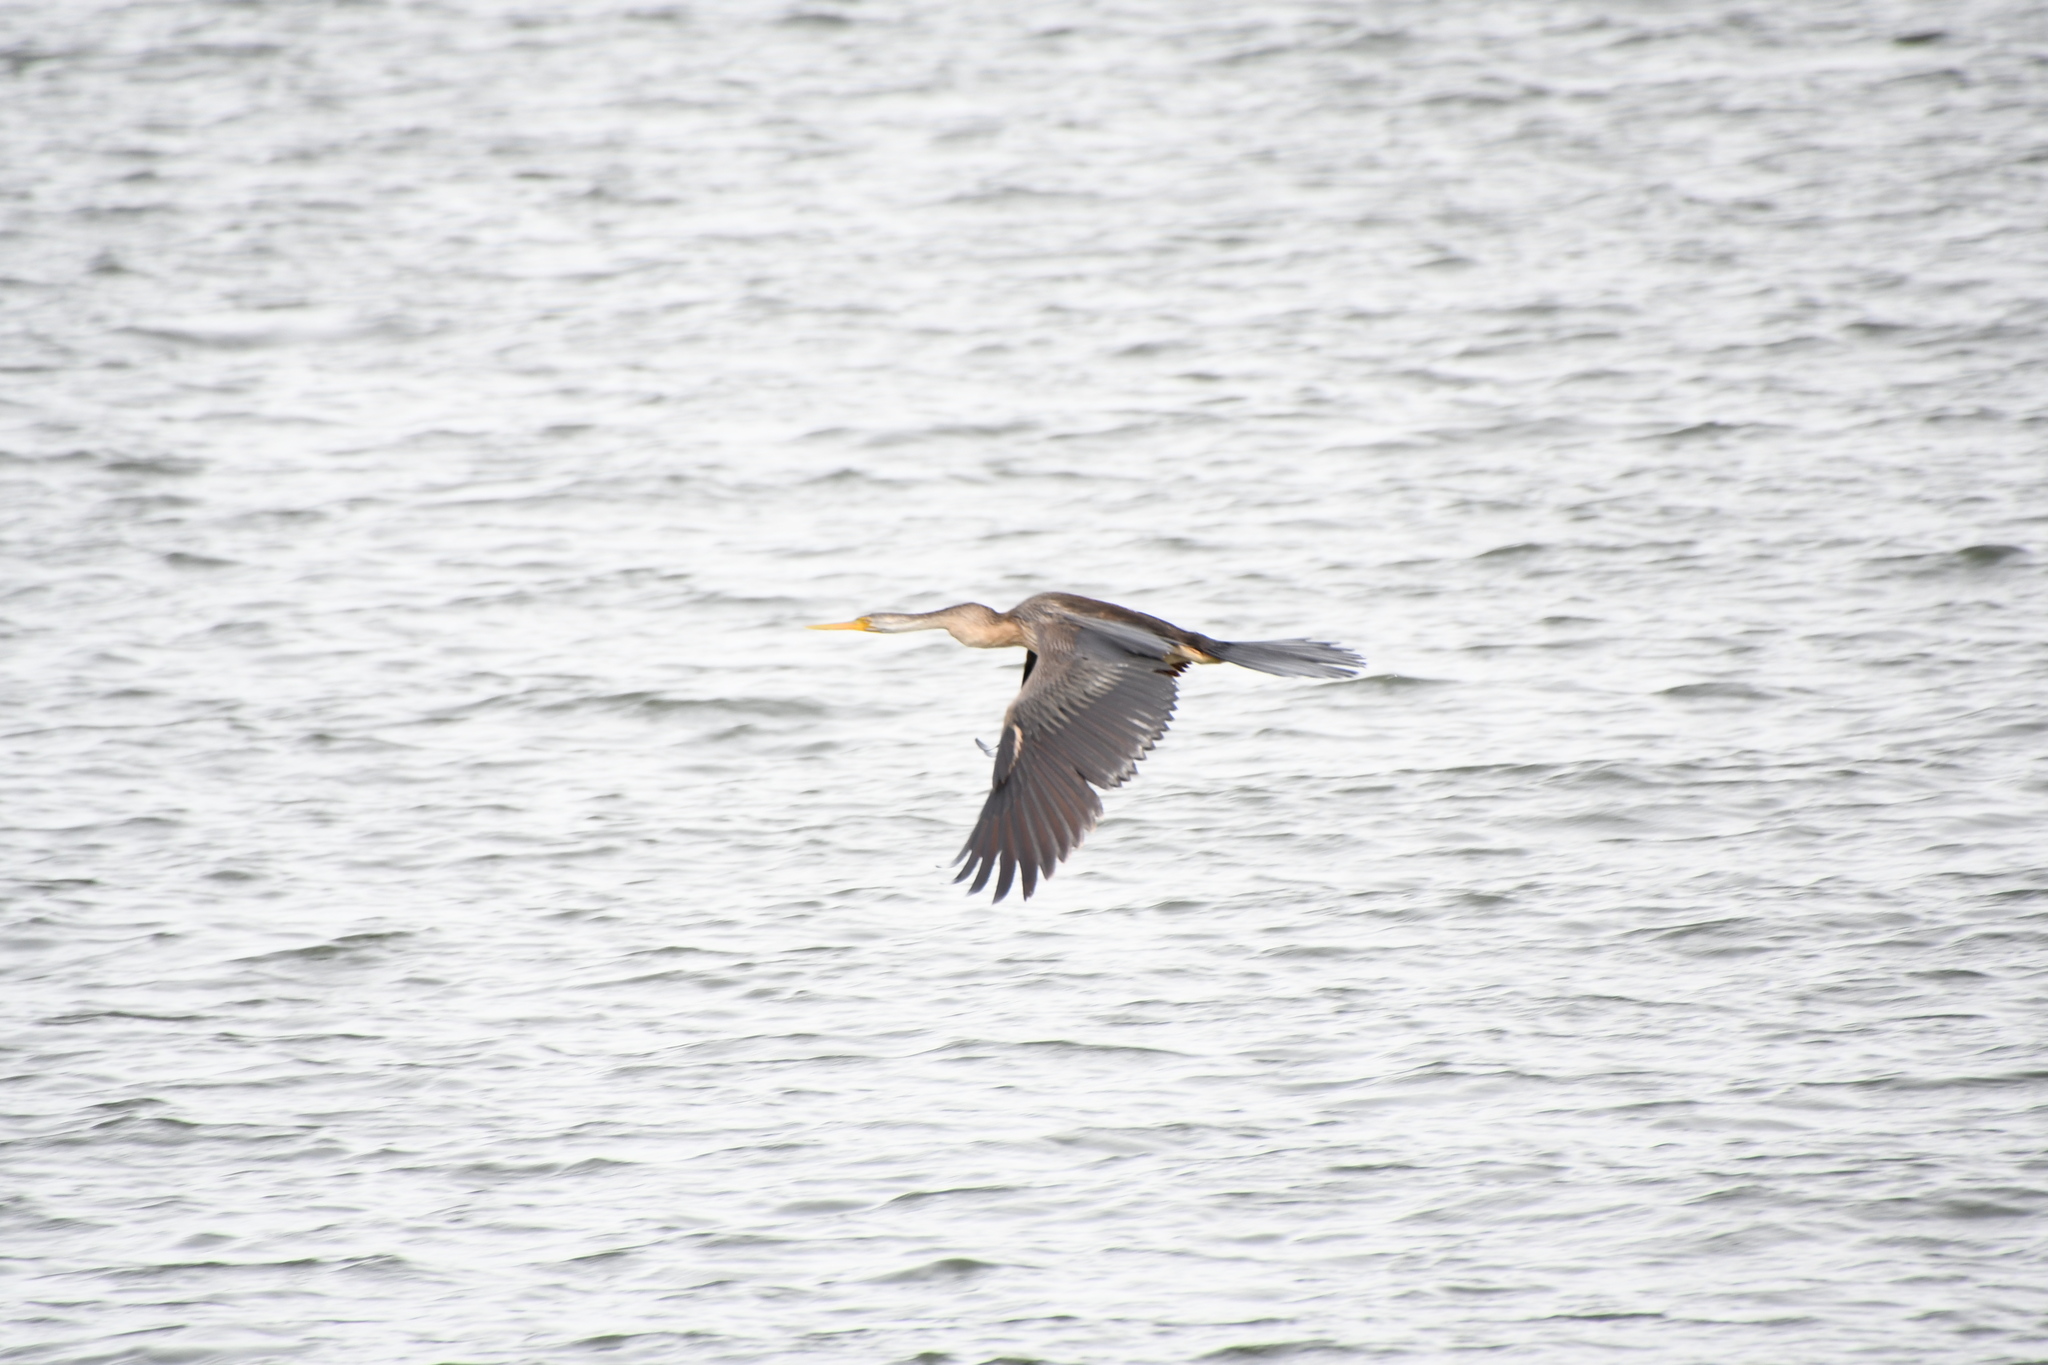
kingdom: Animalia
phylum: Chordata
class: Aves
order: Suliformes
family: Anhingidae
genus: Anhinga
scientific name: Anhinga novaehollandiae
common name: Australasian darter
